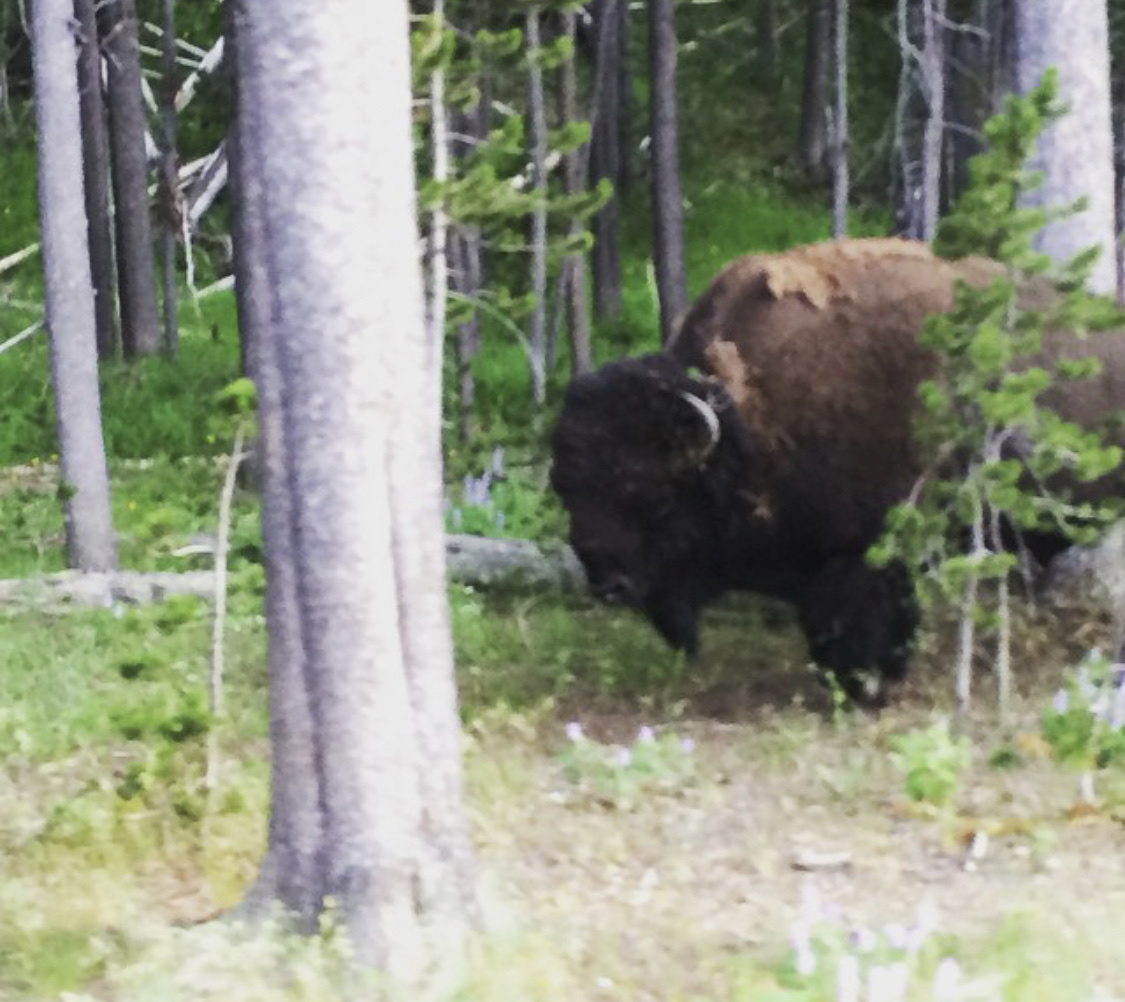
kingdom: Animalia
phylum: Chordata
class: Mammalia
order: Artiodactyla
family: Bovidae
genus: Bison
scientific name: Bison bison
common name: American bison
